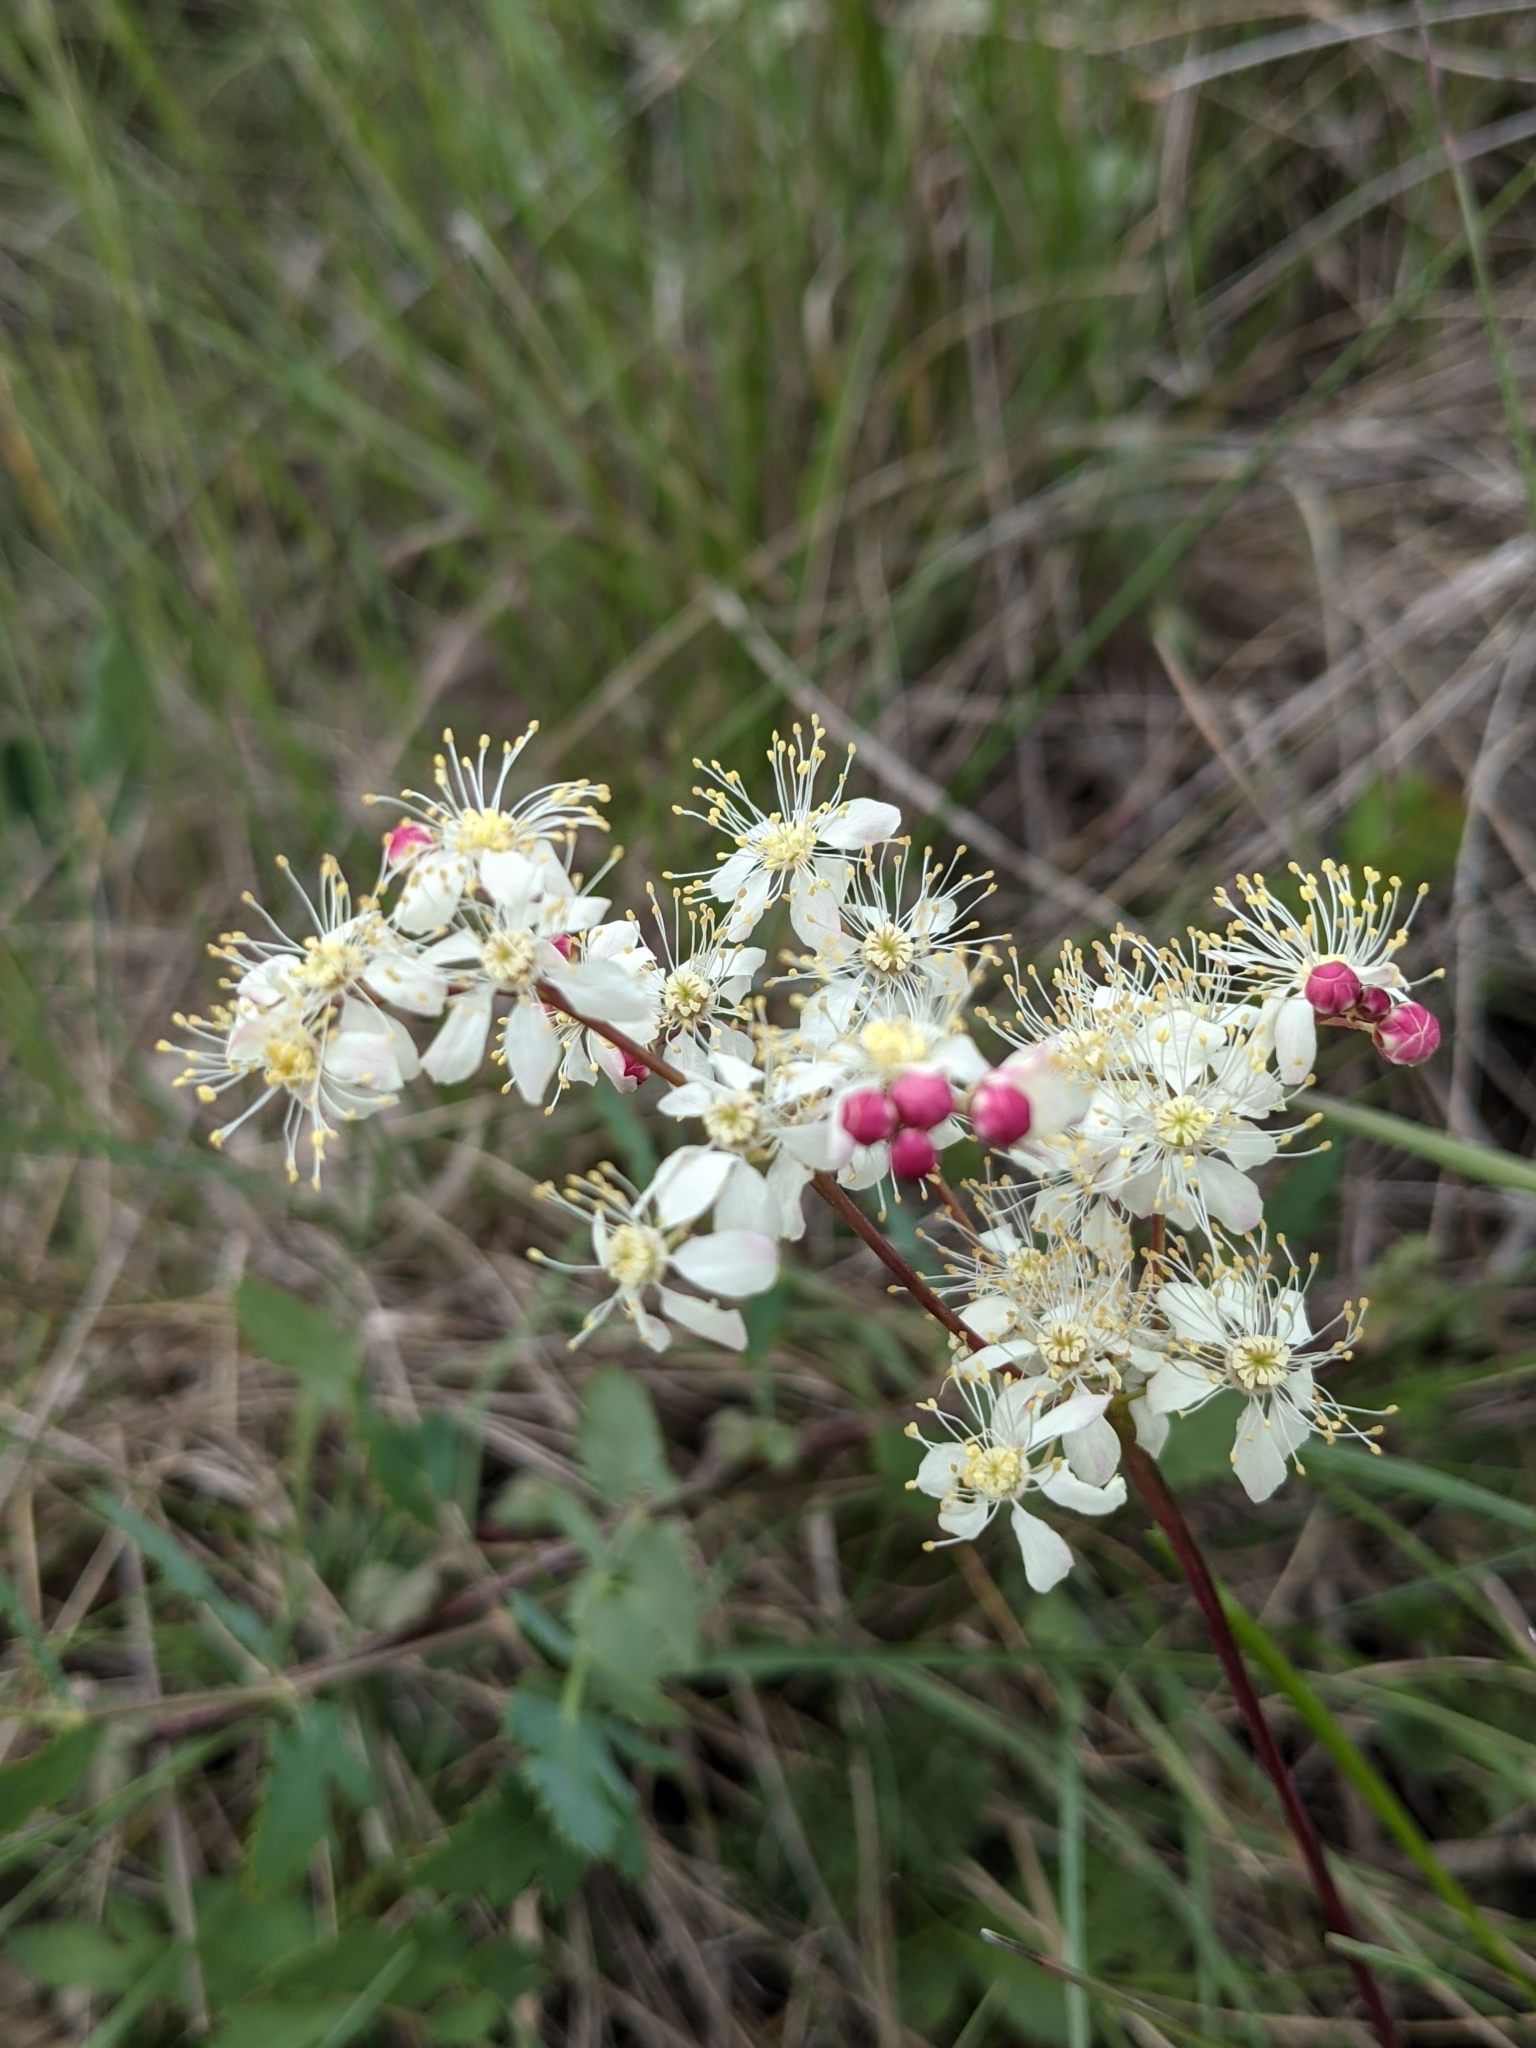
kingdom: Plantae
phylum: Tracheophyta
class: Magnoliopsida
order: Rosales
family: Rosaceae
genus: Filipendula
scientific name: Filipendula vulgaris
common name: Dropwort
